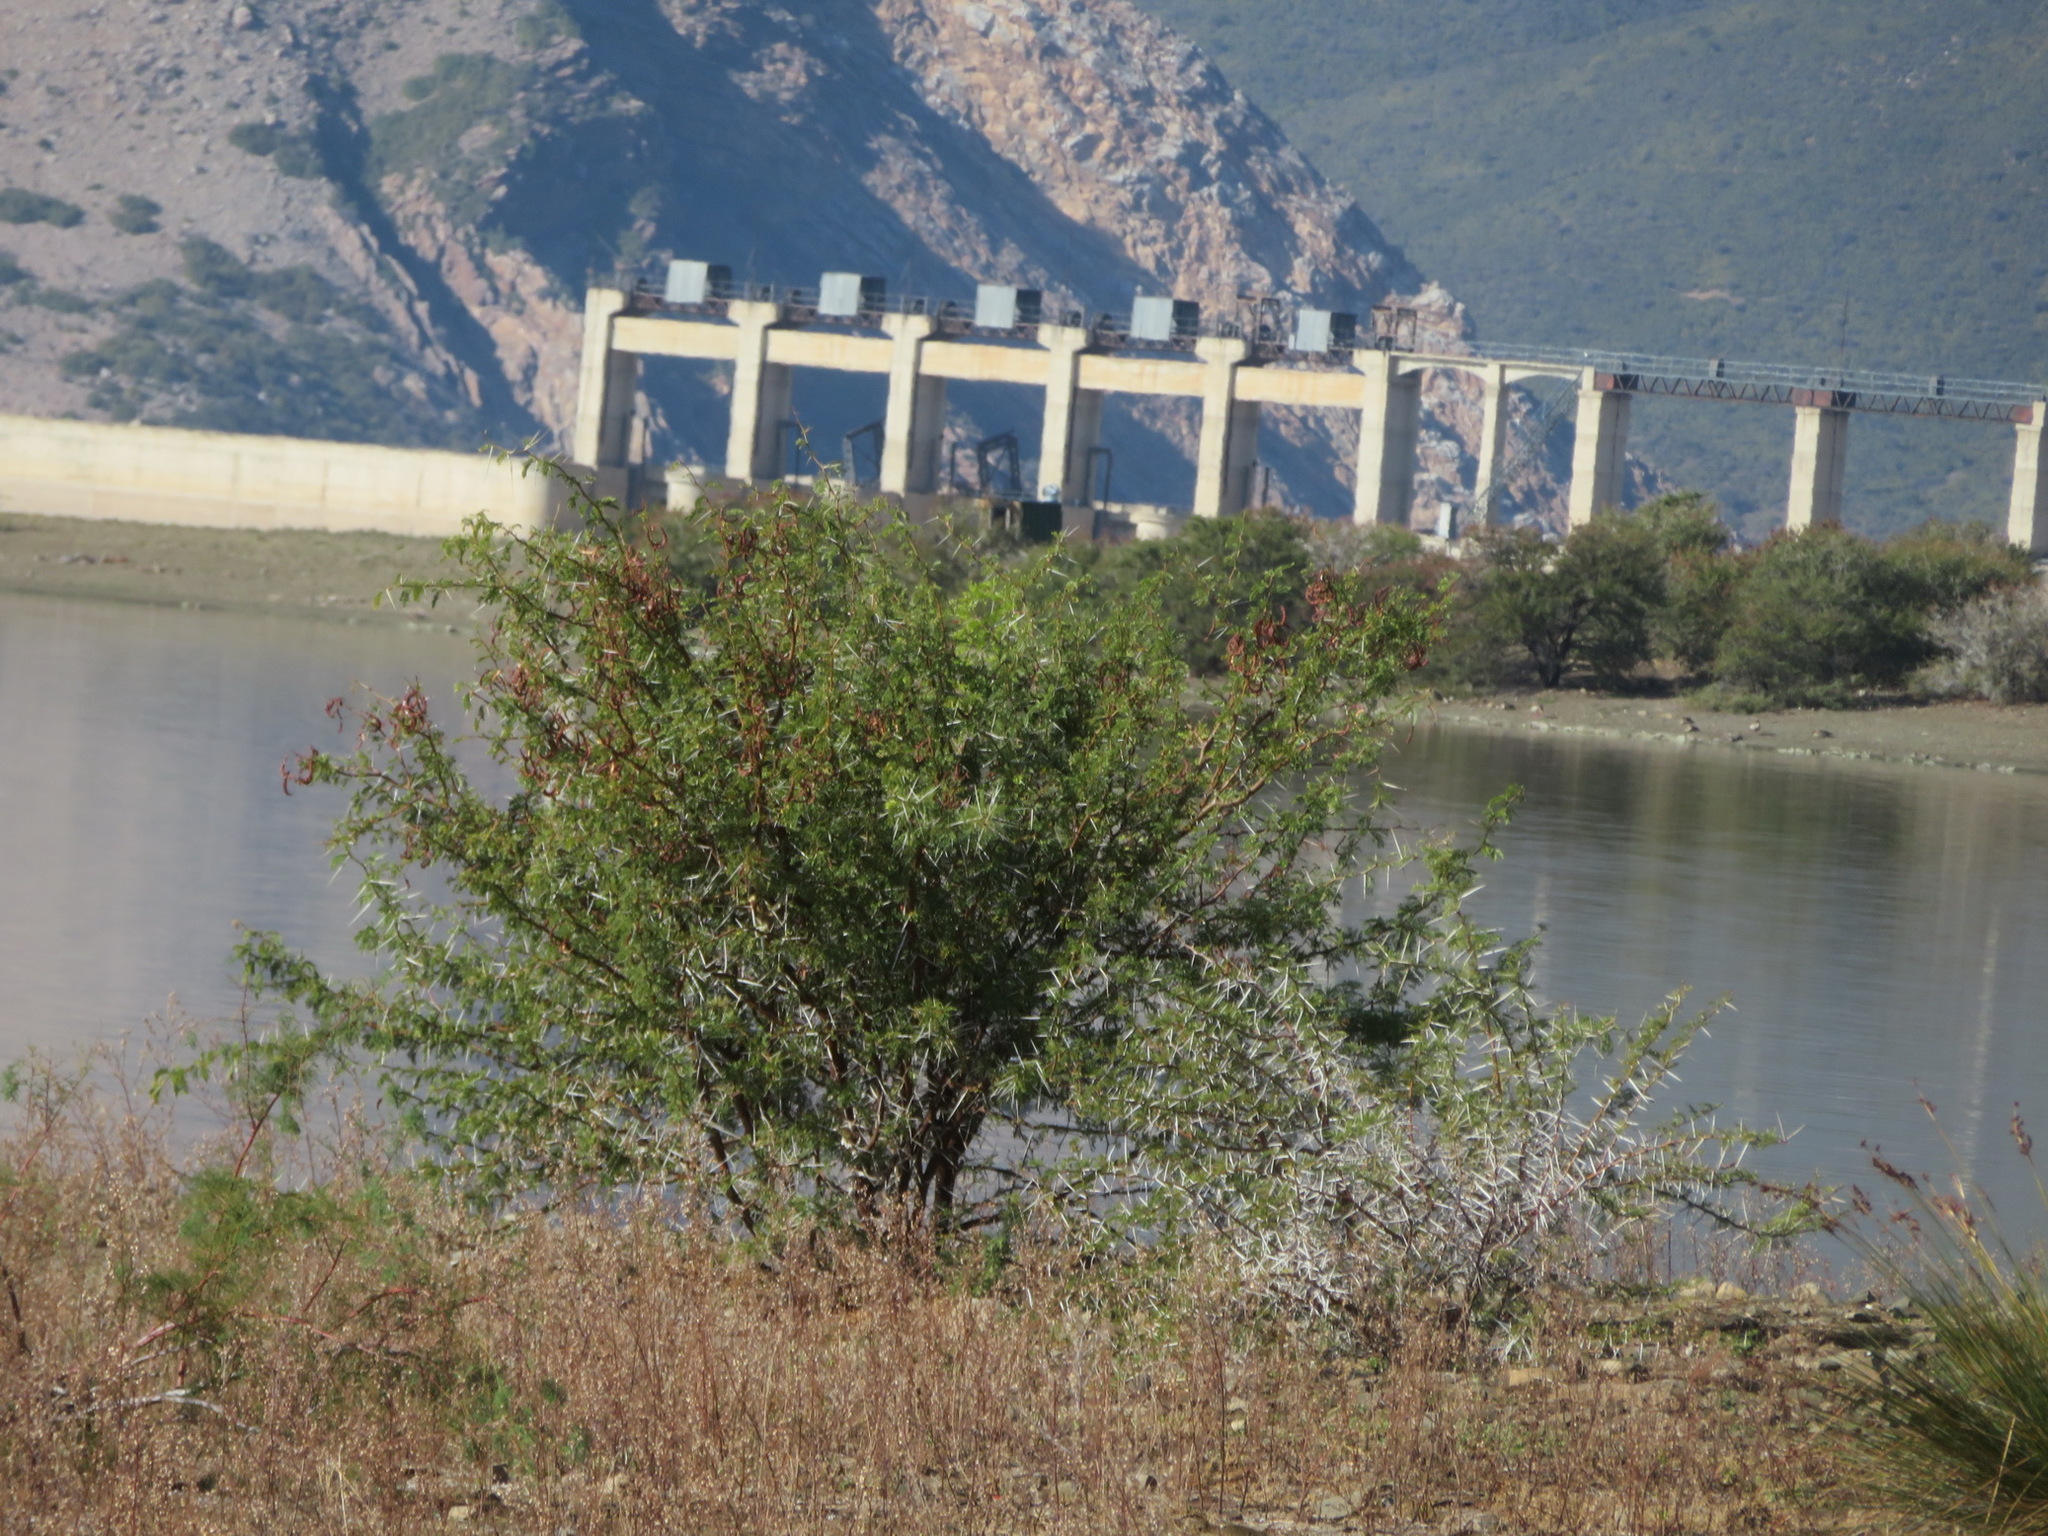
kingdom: Plantae
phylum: Tracheophyta
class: Magnoliopsida
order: Fabales
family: Fabaceae
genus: Vachellia
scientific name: Vachellia karroo
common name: Sweet thorn
